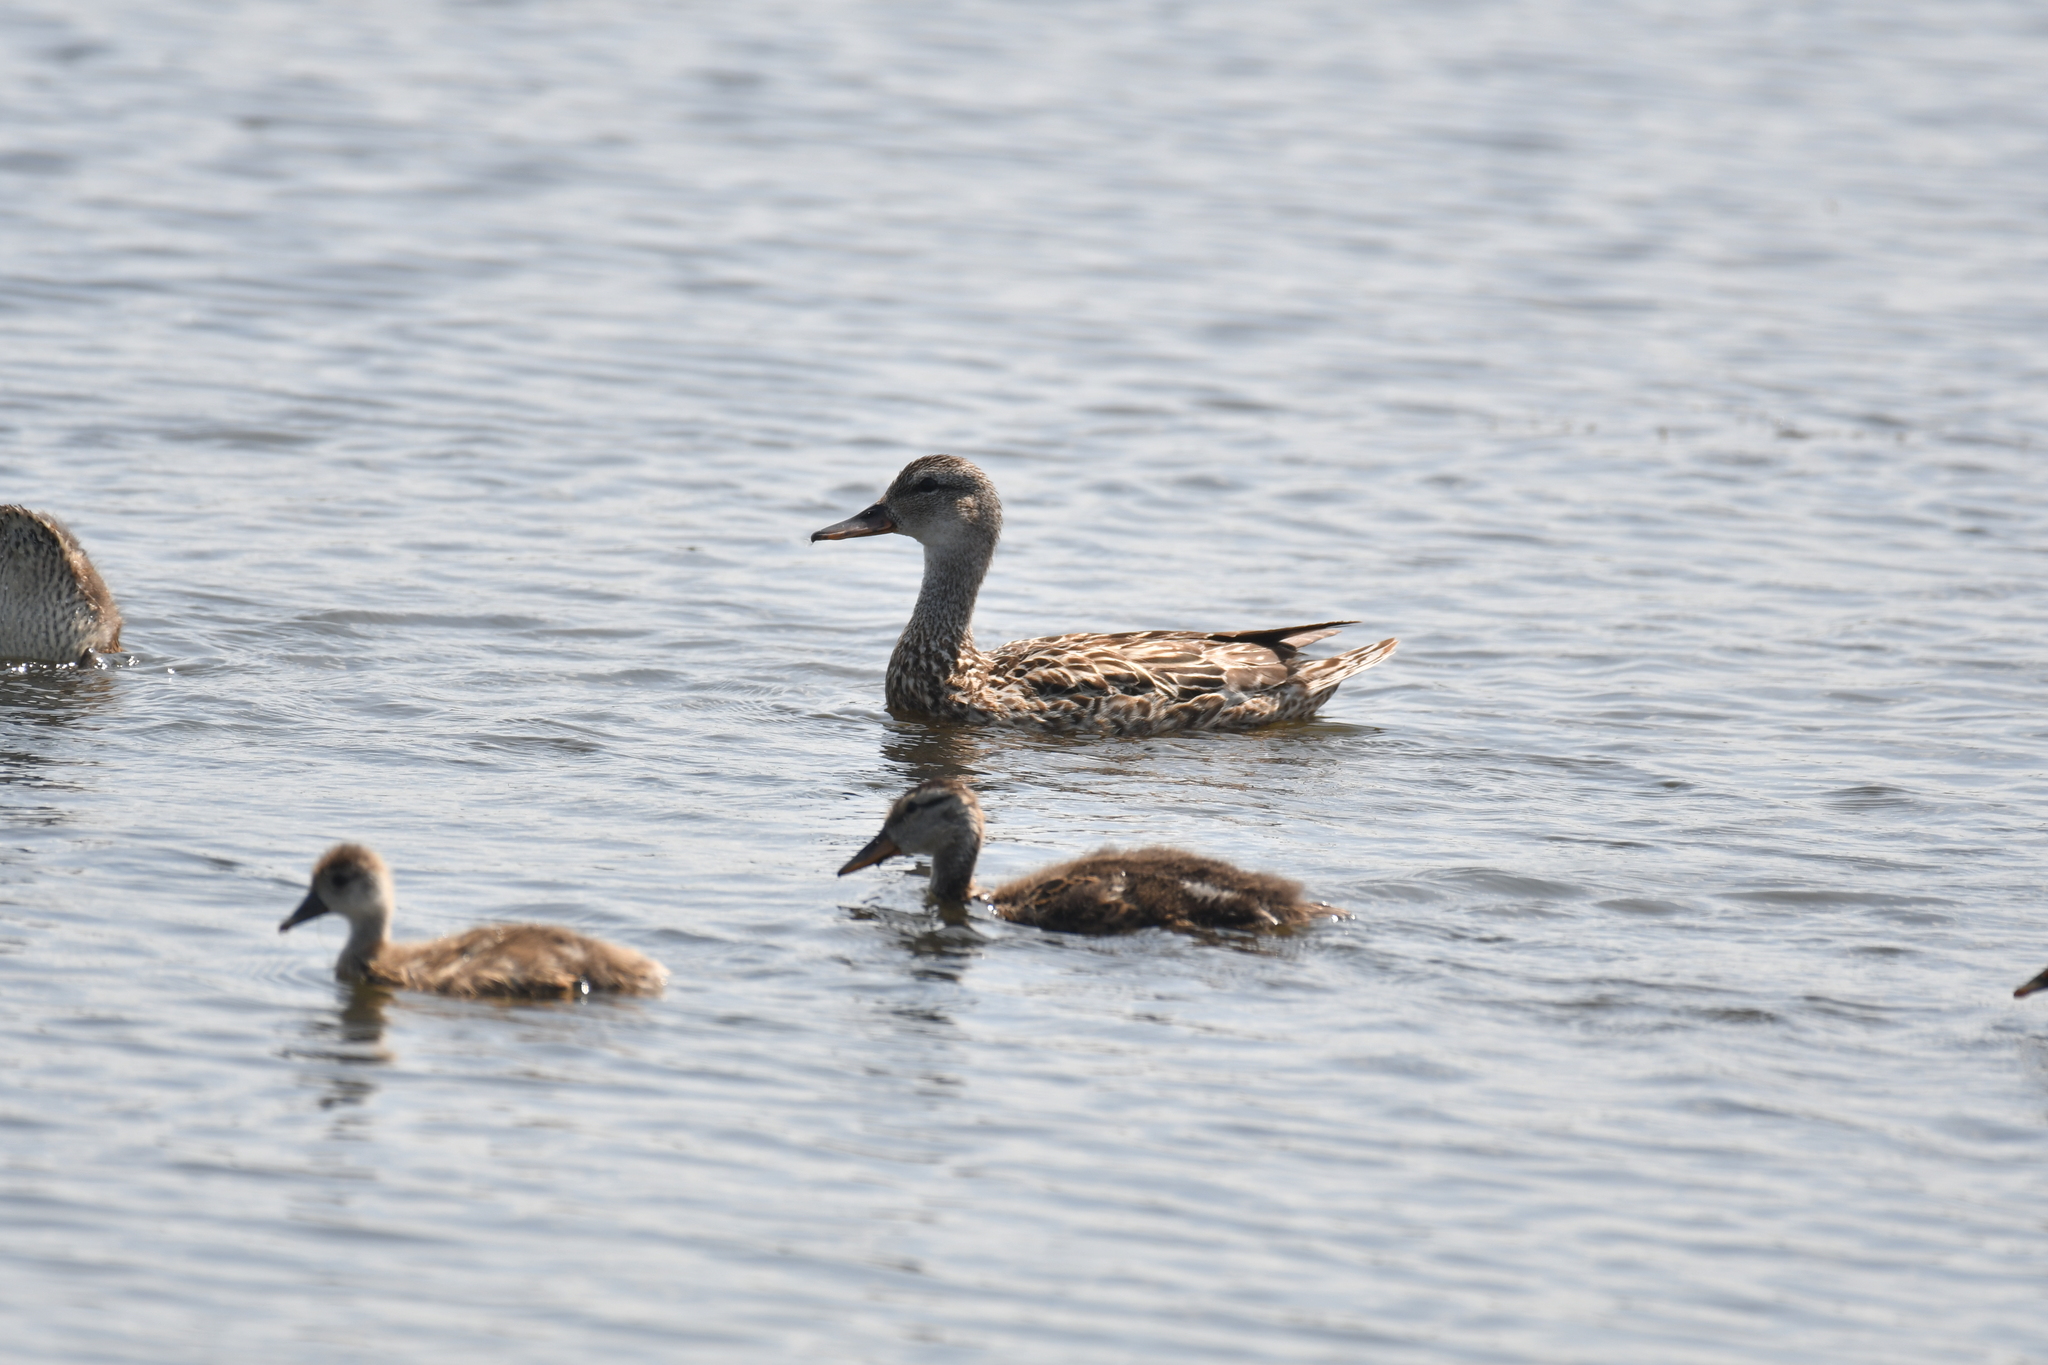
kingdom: Animalia
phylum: Chordata
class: Aves
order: Anseriformes
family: Anatidae
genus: Mareca
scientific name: Mareca strepera
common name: Gadwall
